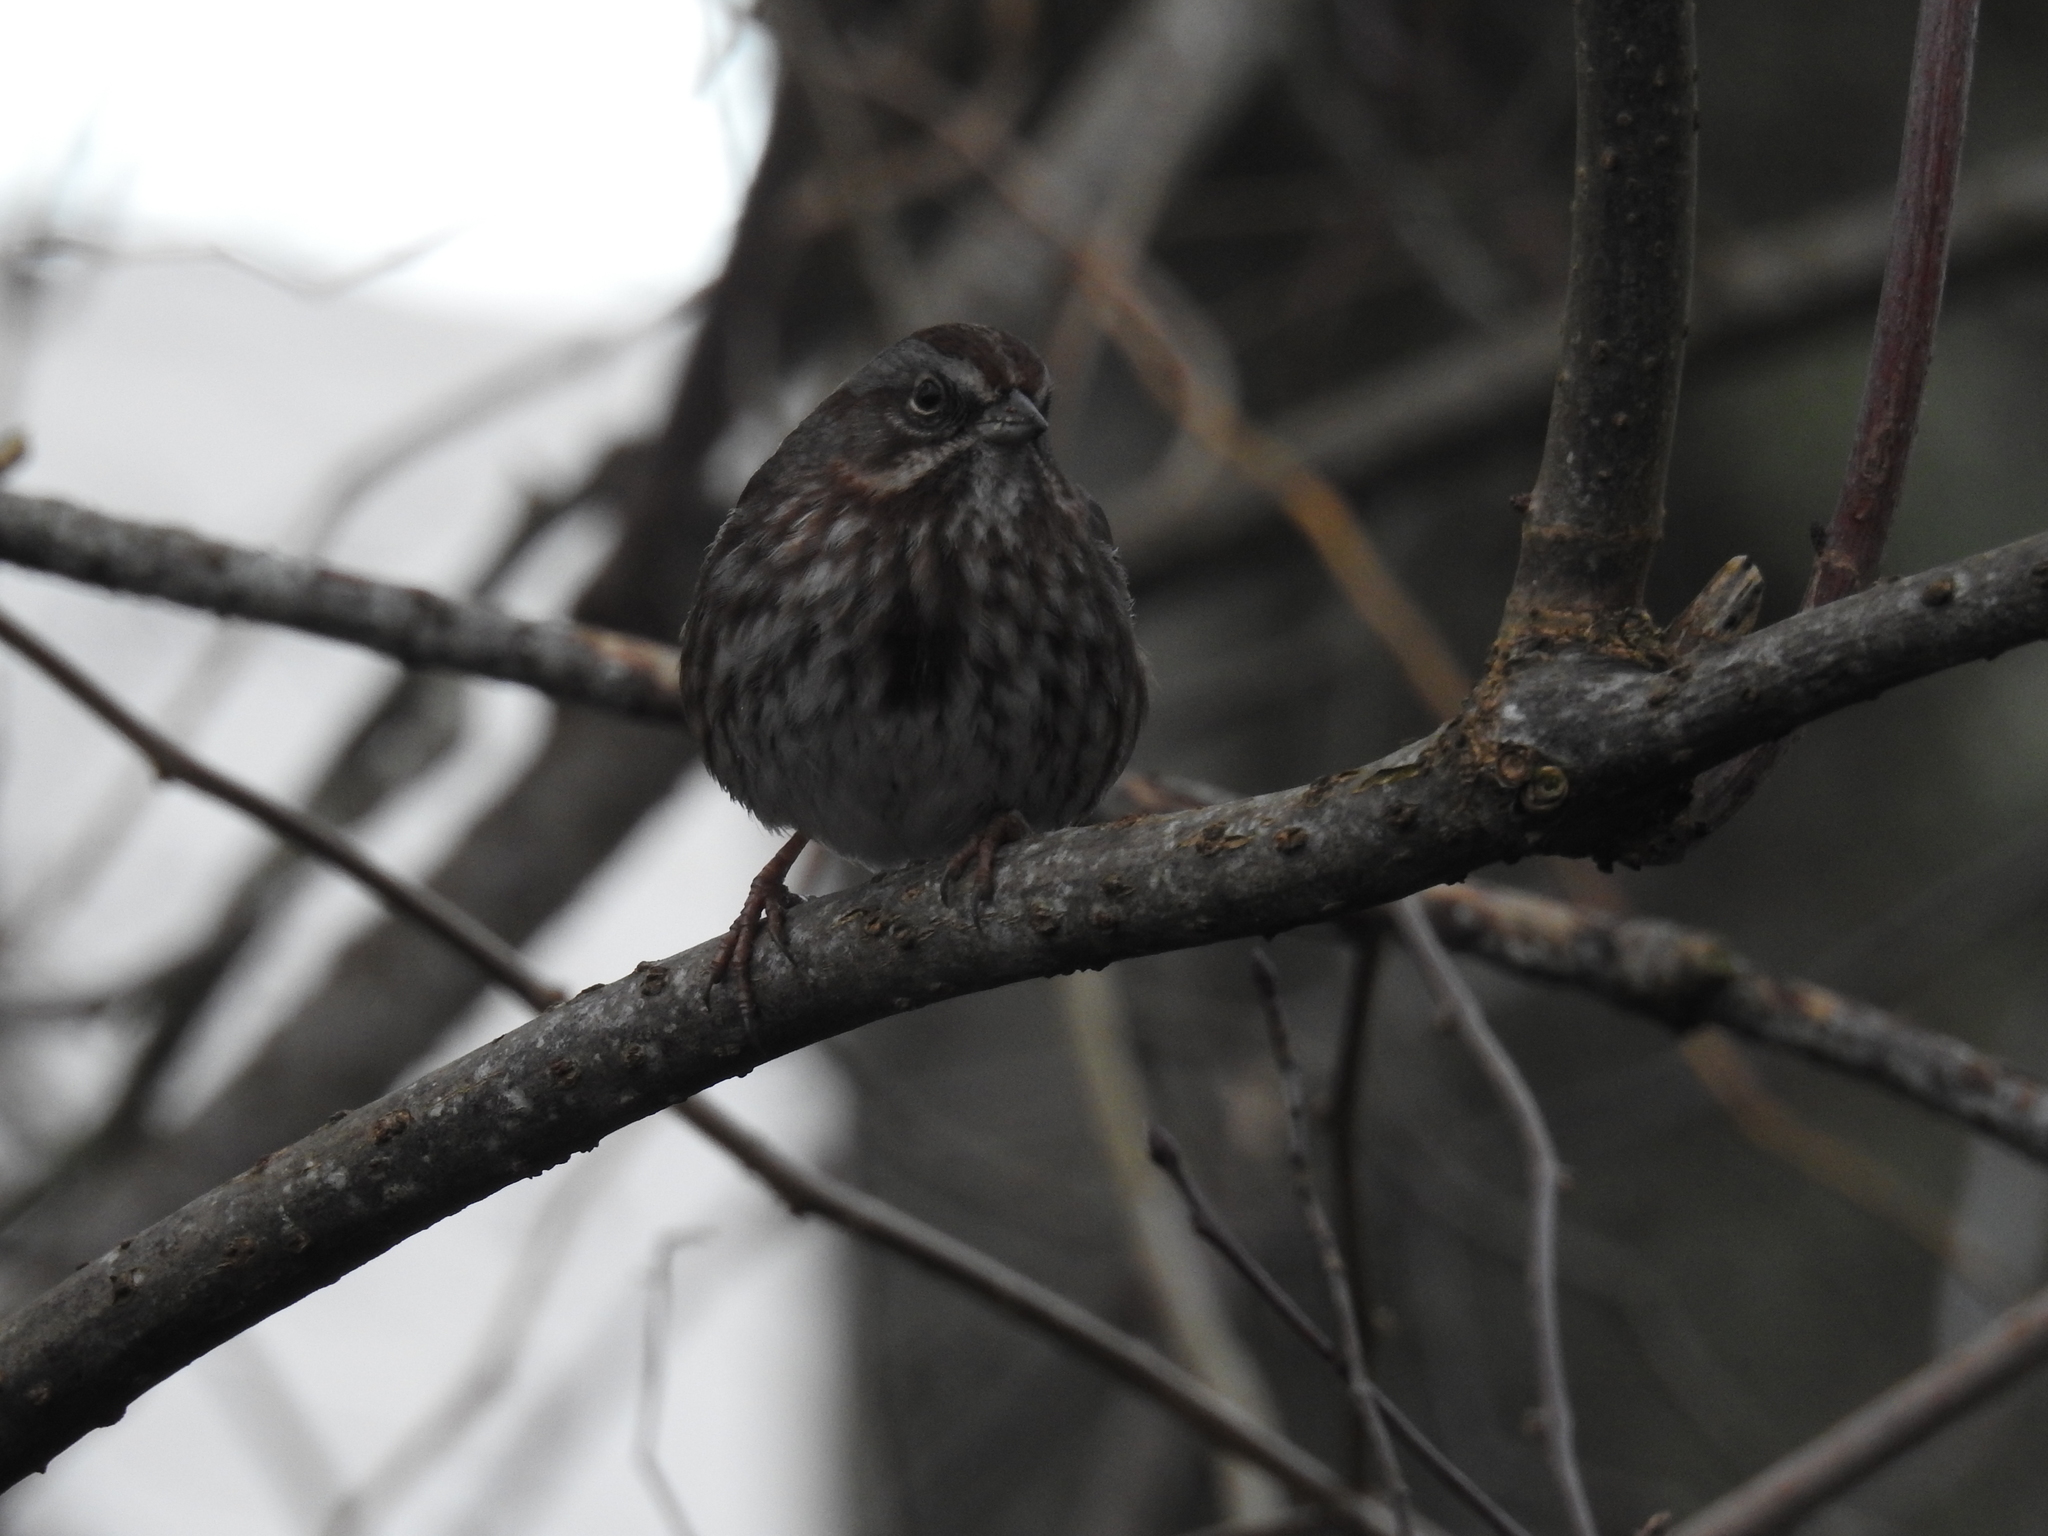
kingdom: Animalia
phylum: Chordata
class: Aves
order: Passeriformes
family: Passerellidae
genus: Melospiza
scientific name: Melospiza melodia
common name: Song sparrow
